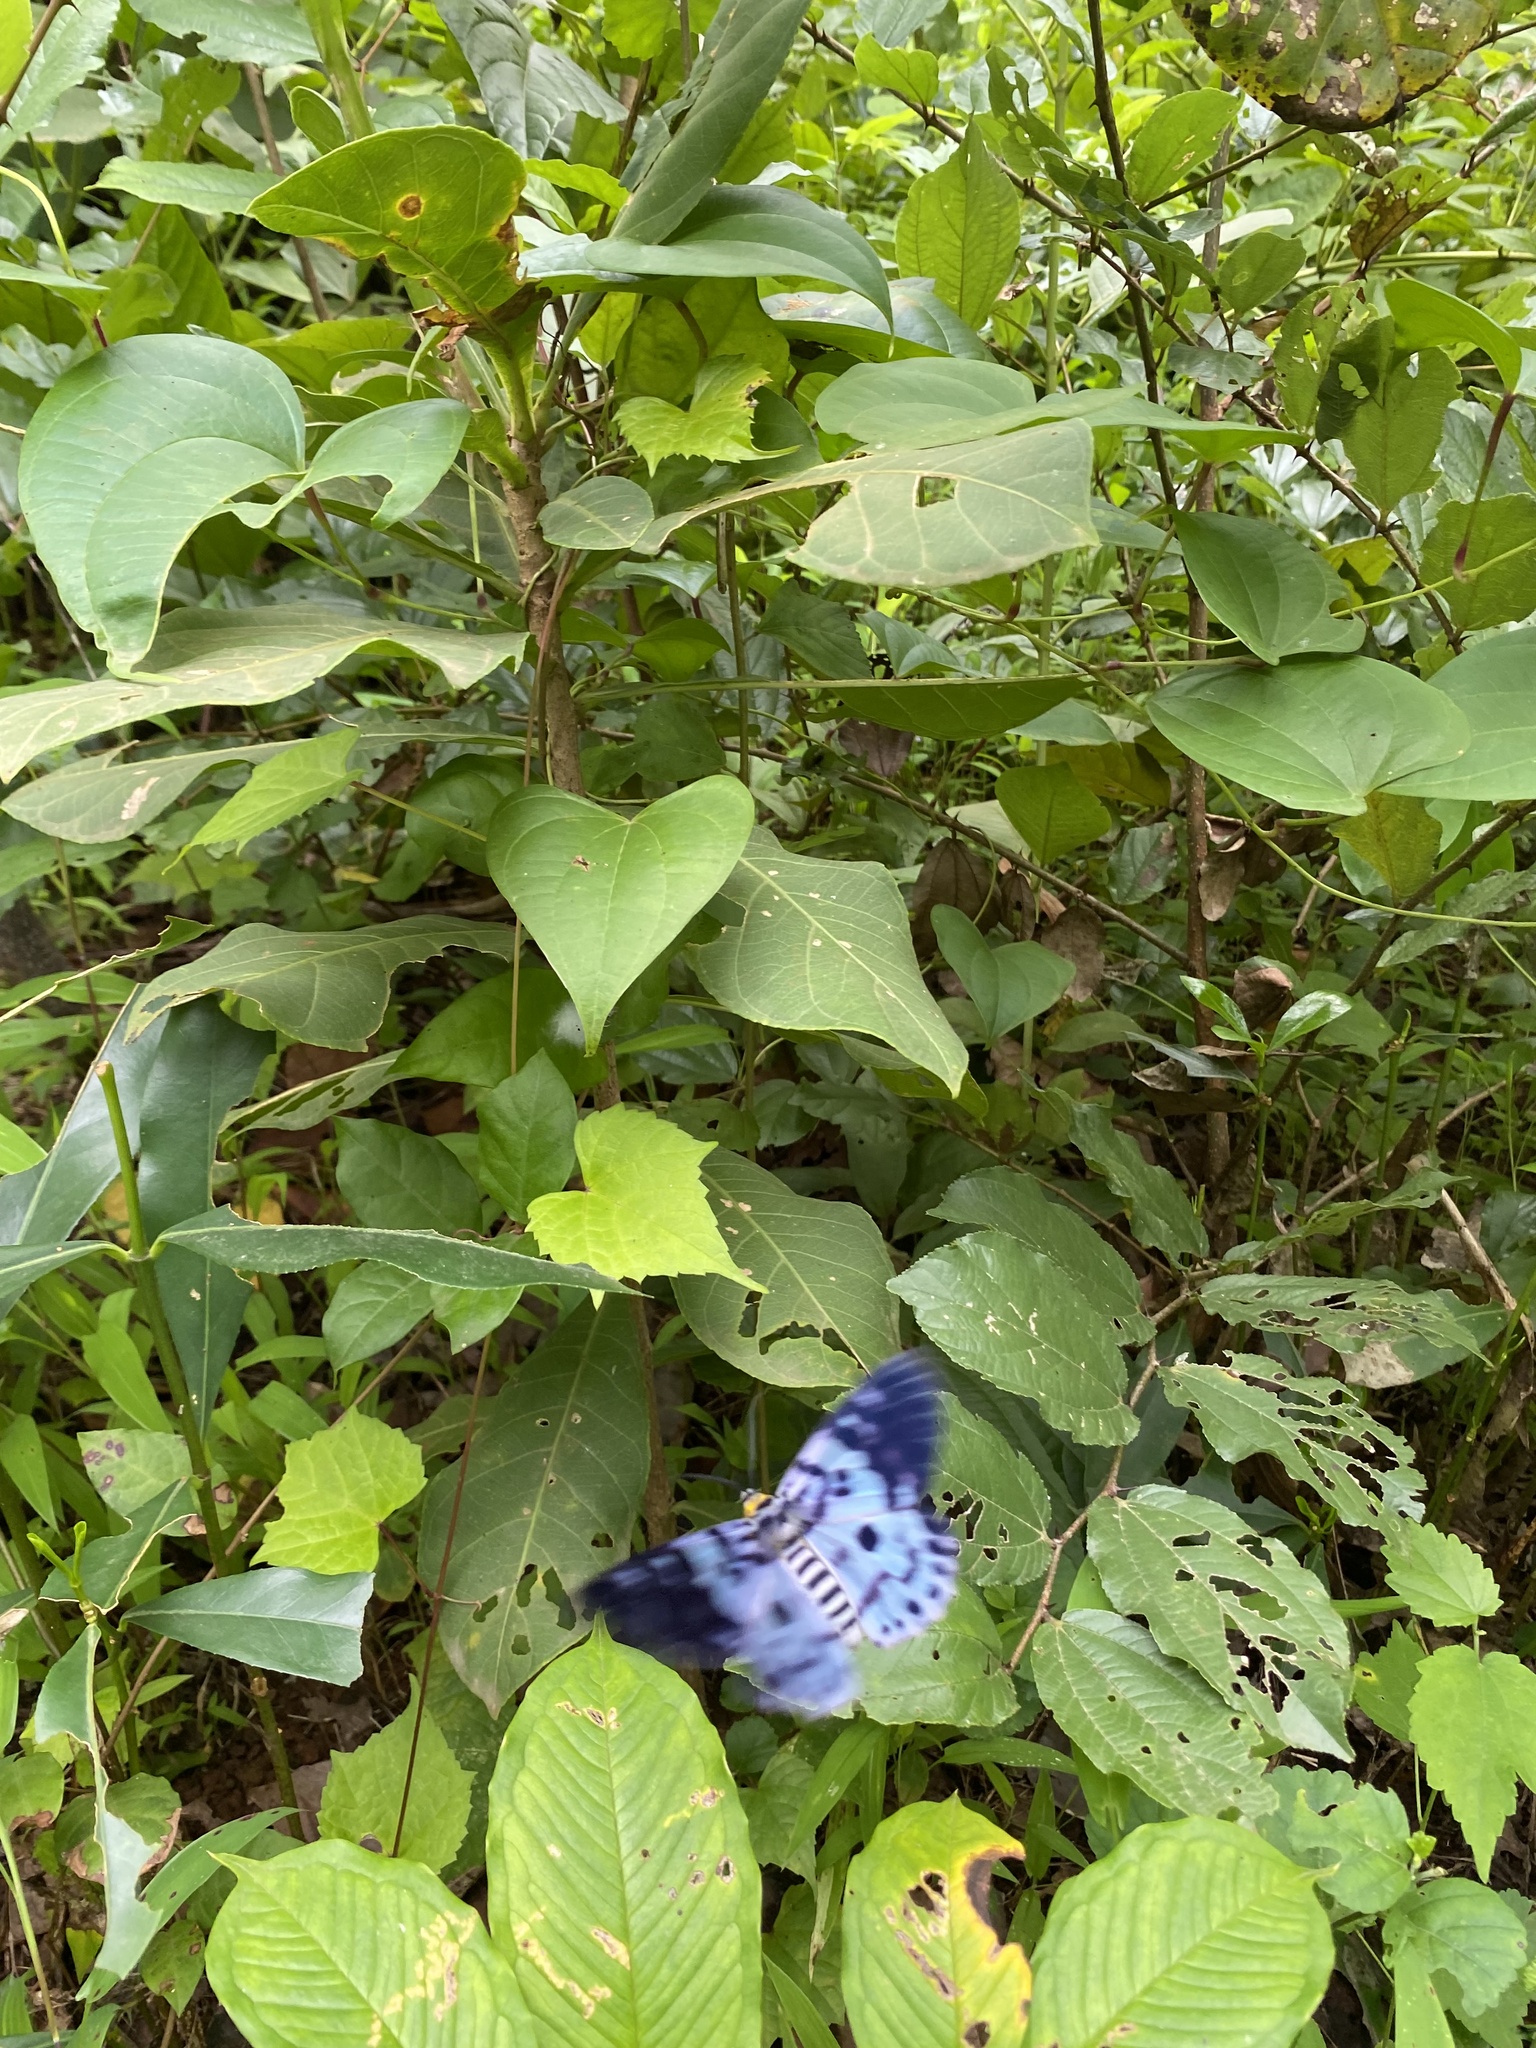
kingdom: Animalia
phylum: Arthropoda
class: Insecta
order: Lepidoptera
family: Geometridae
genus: Dysphania
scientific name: Dysphania percota
